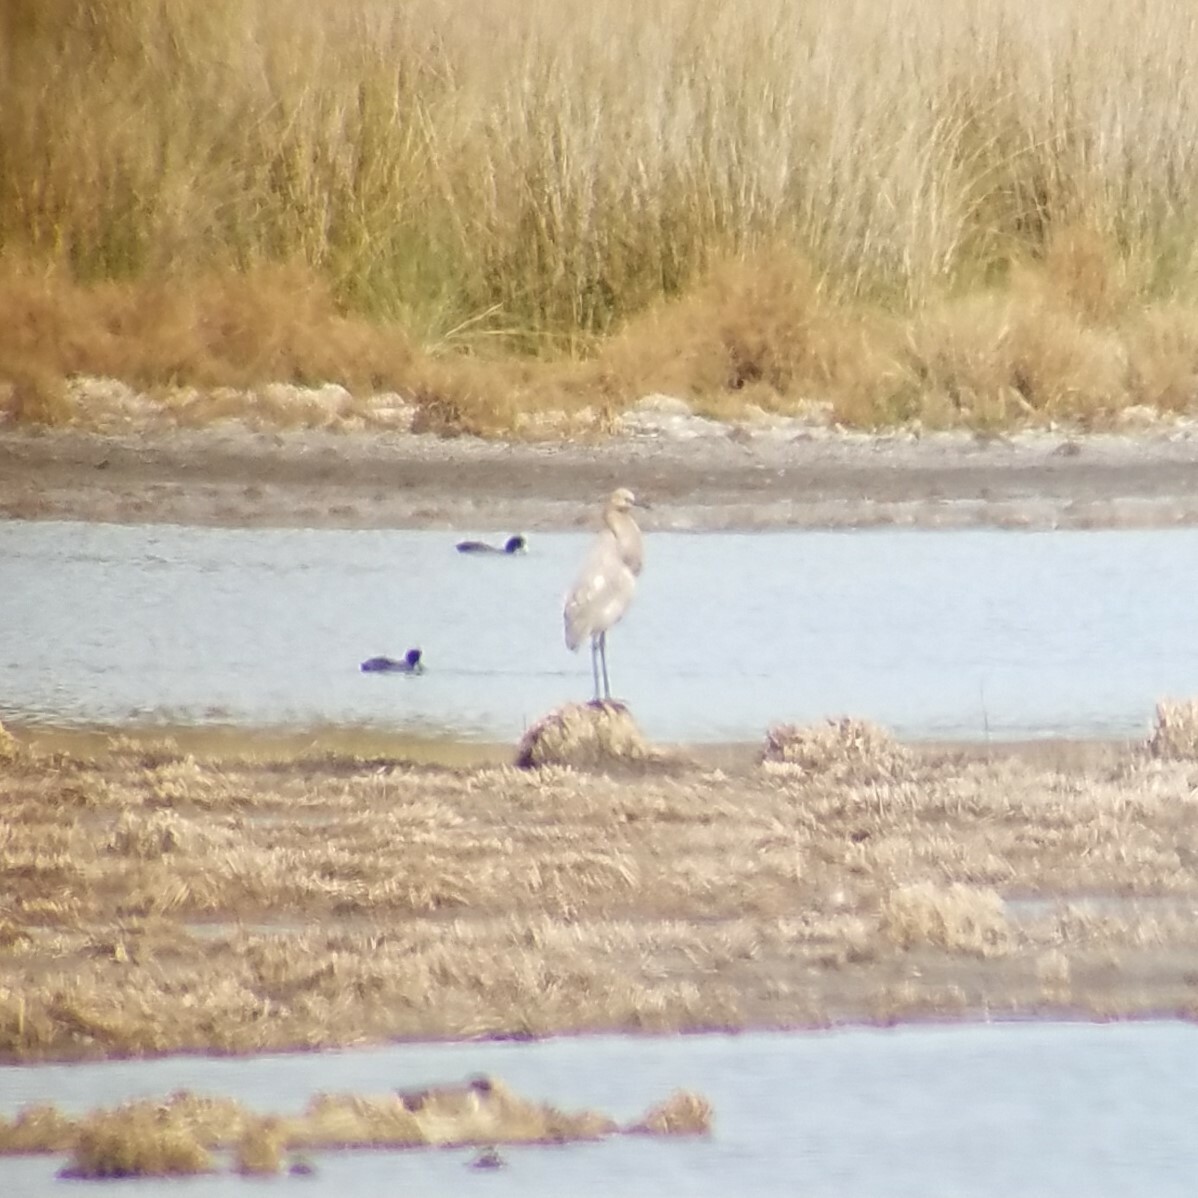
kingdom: Animalia
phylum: Chordata
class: Aves
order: Pelecaniformes
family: Ardeidae
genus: Egretta
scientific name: Egretta rufescens
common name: Reddish egret
